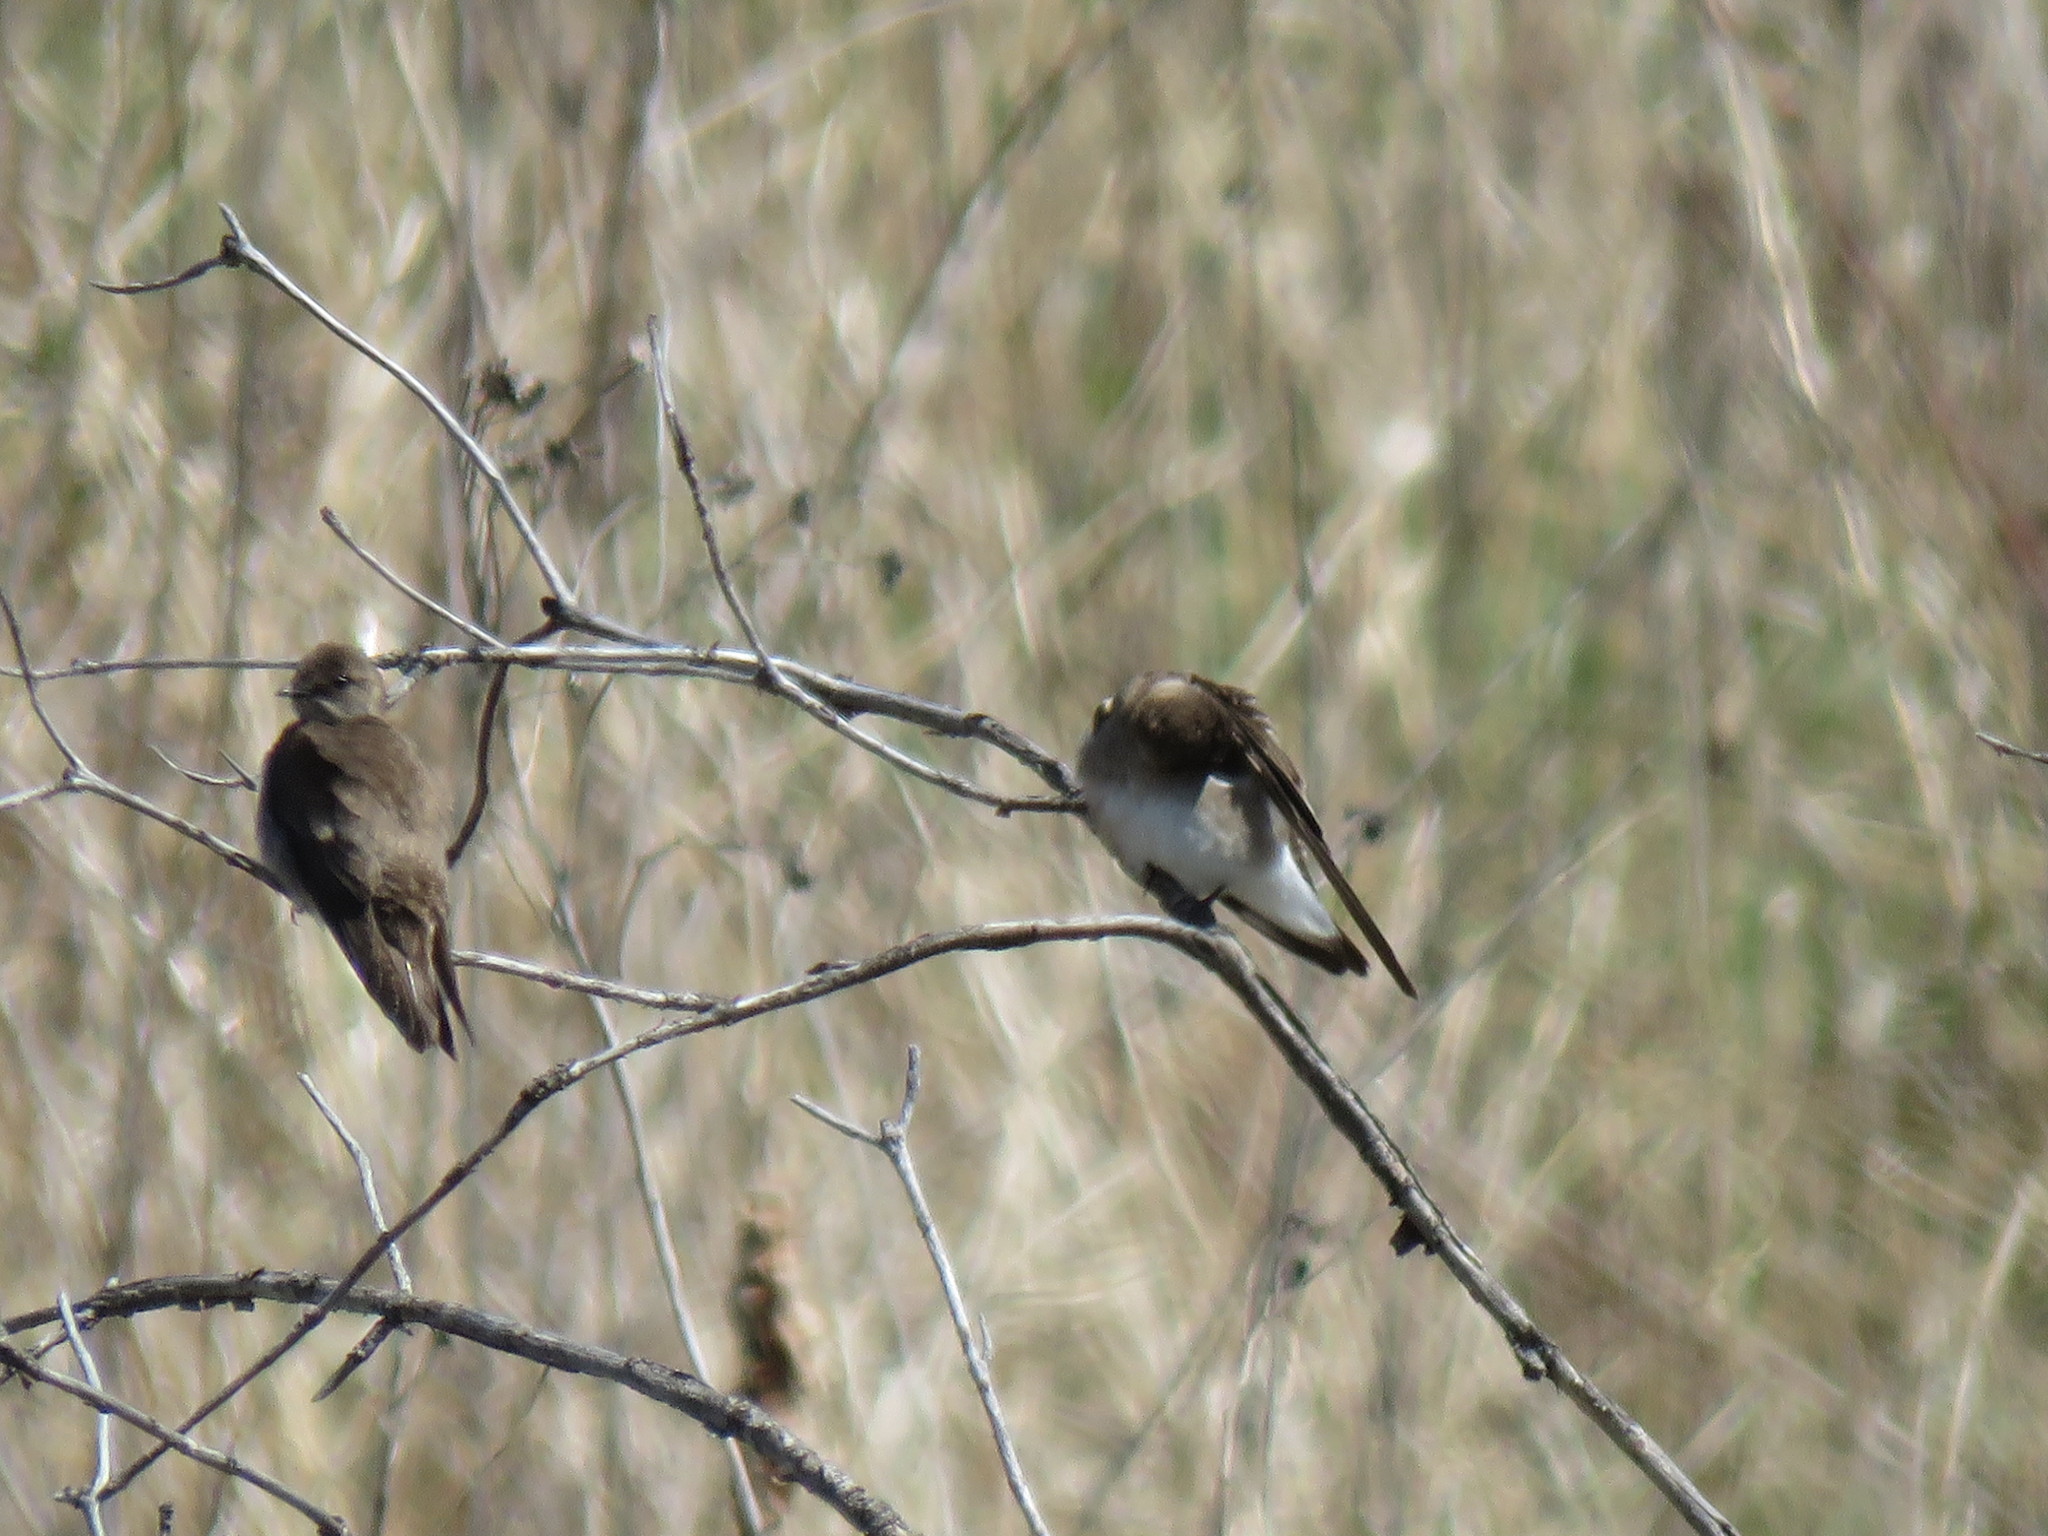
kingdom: Animalia
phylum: Chordata
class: Aves
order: Passeriformes
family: Hirundinidae
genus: Stelgidopteryx
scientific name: Stelgidopteryx serripennis
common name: Northern rough-winged swallow
